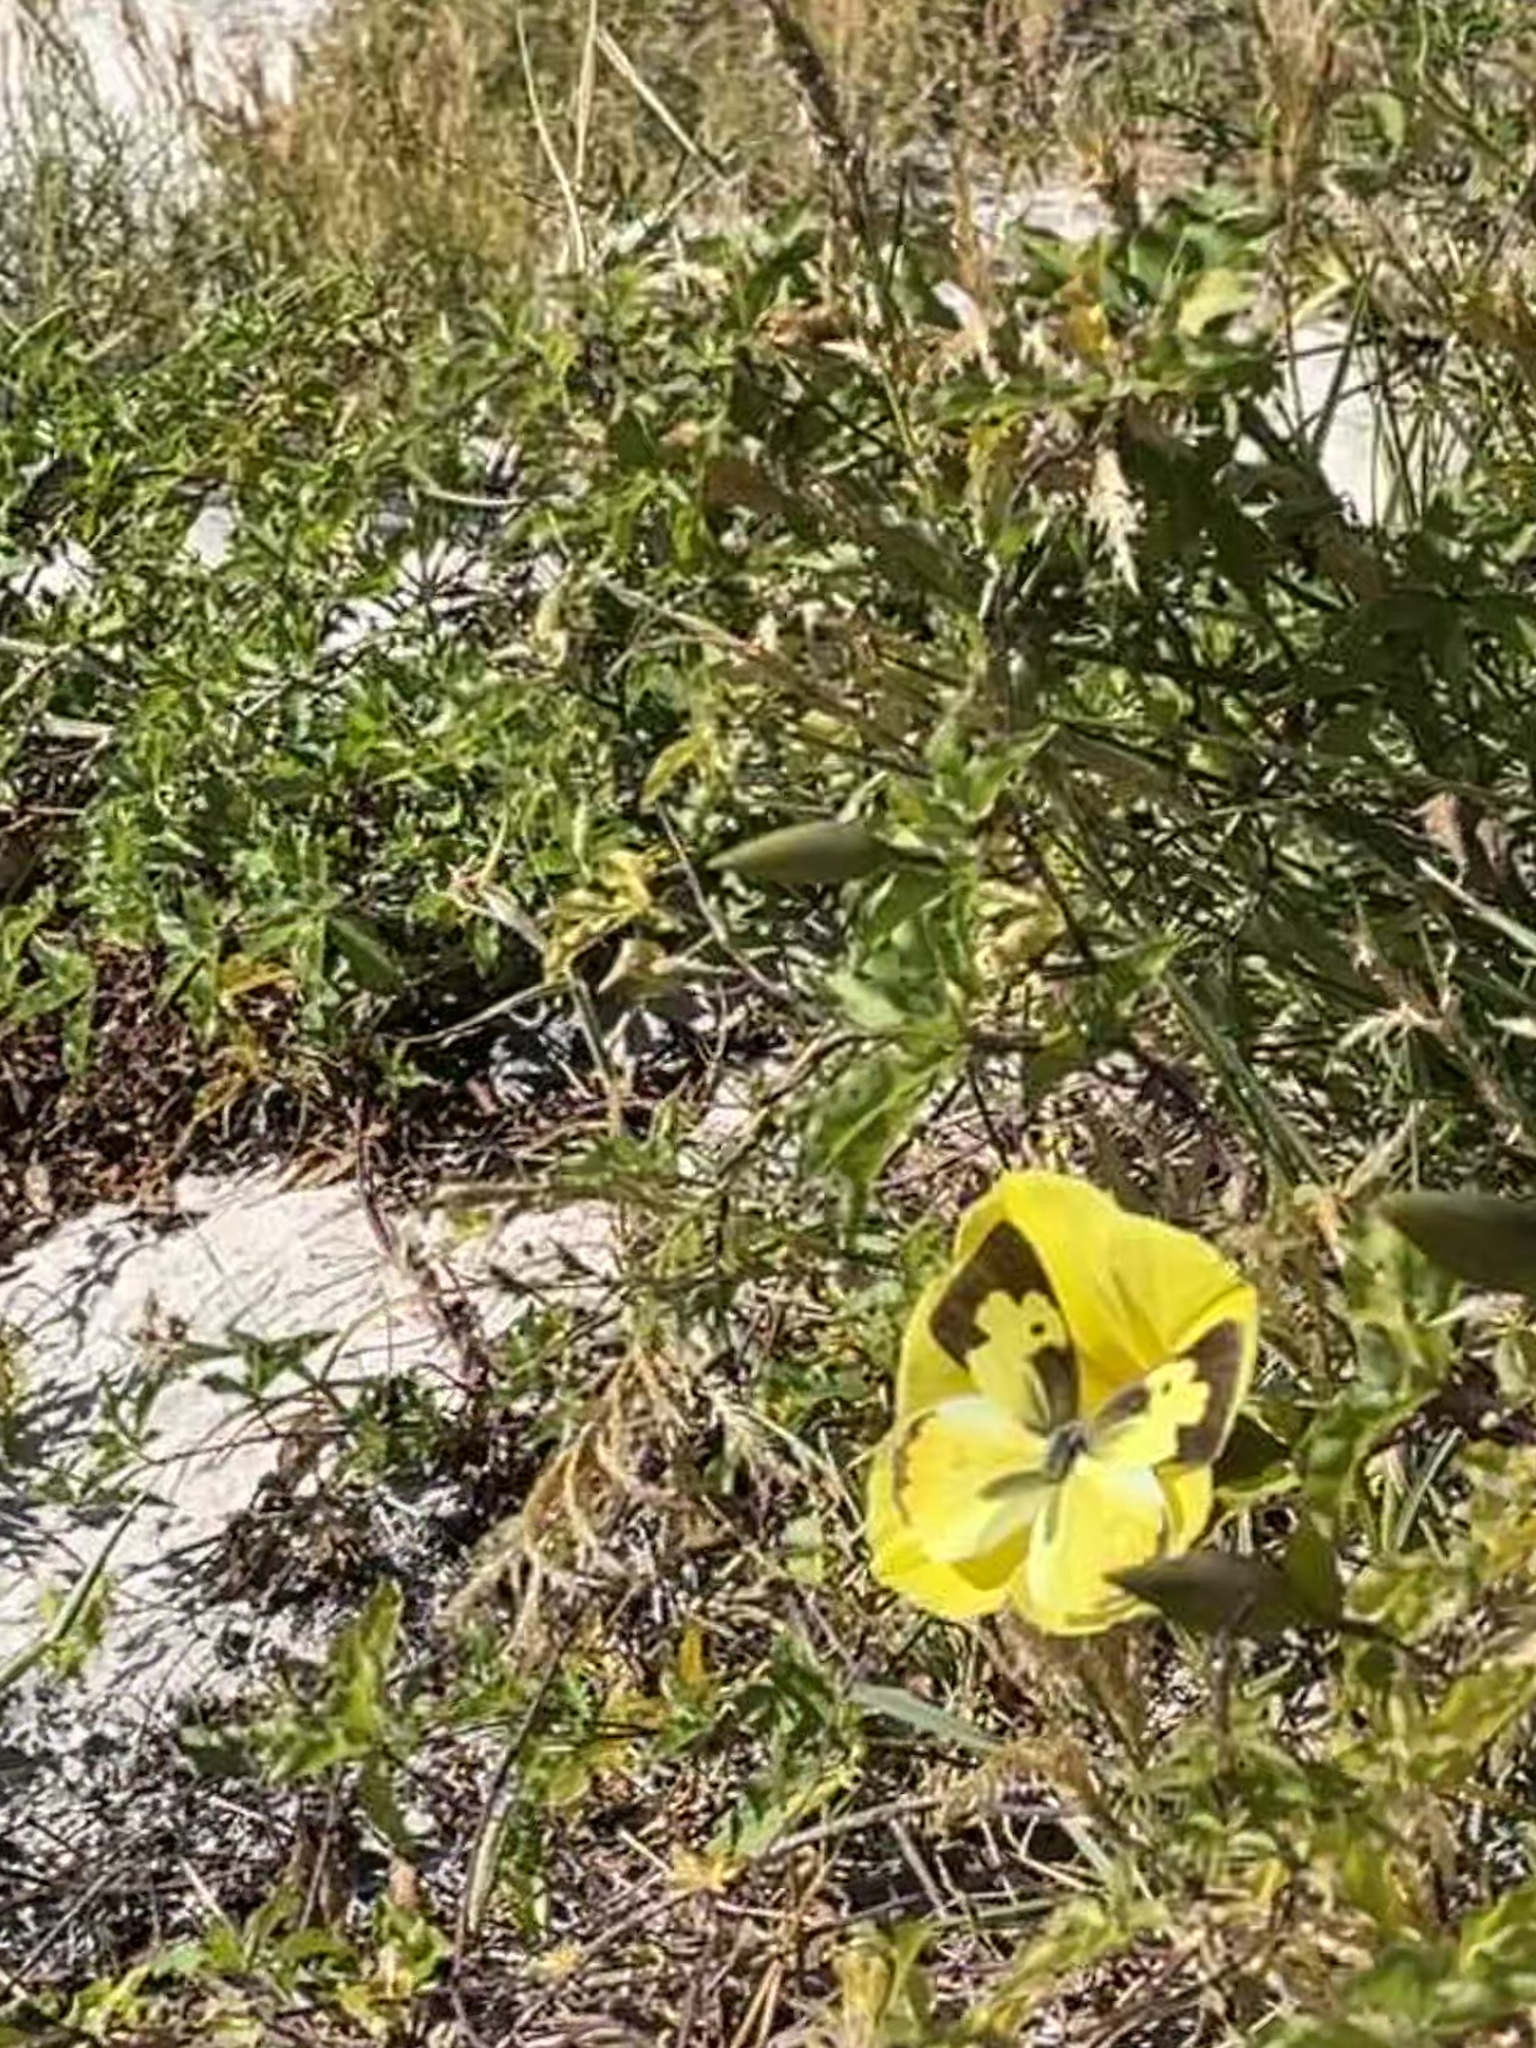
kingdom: Animalia
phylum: Arthropoda
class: Insecta
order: Lepidoptera
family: Pieridae
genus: Zerene
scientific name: Zerene cesonia
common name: Southern dogface
